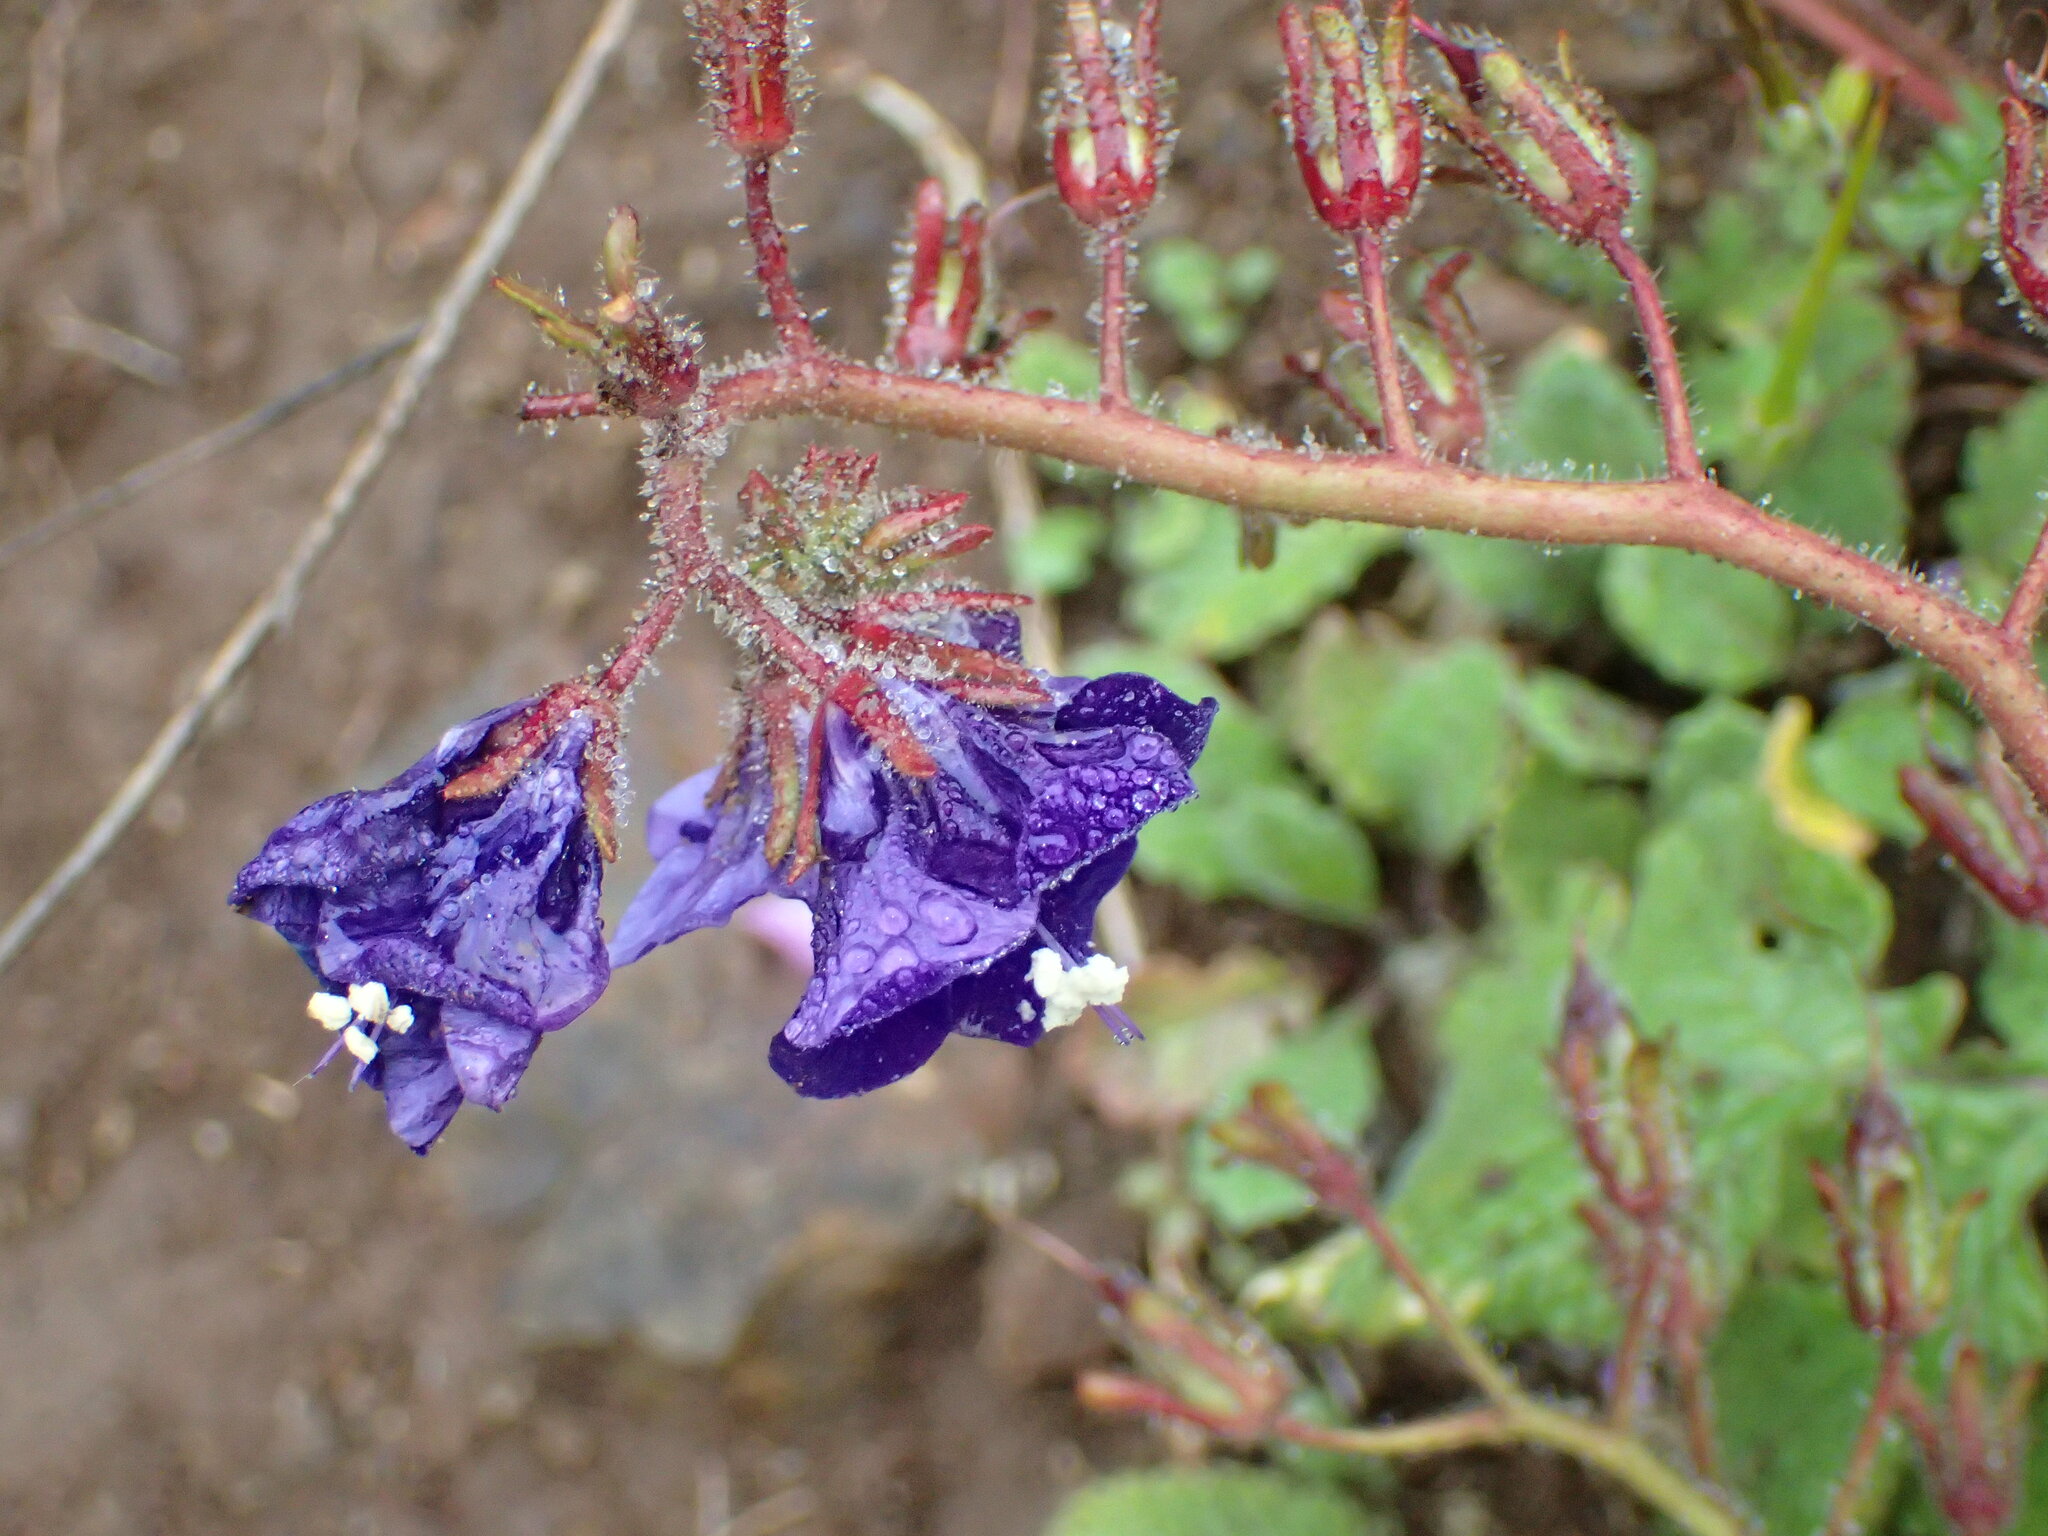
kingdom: Plantae
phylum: Tracheophyta
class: Magnoliopsida
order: Boraginales
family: Hydrophyllaceae
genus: Phacelia
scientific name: Phacelia parryi
